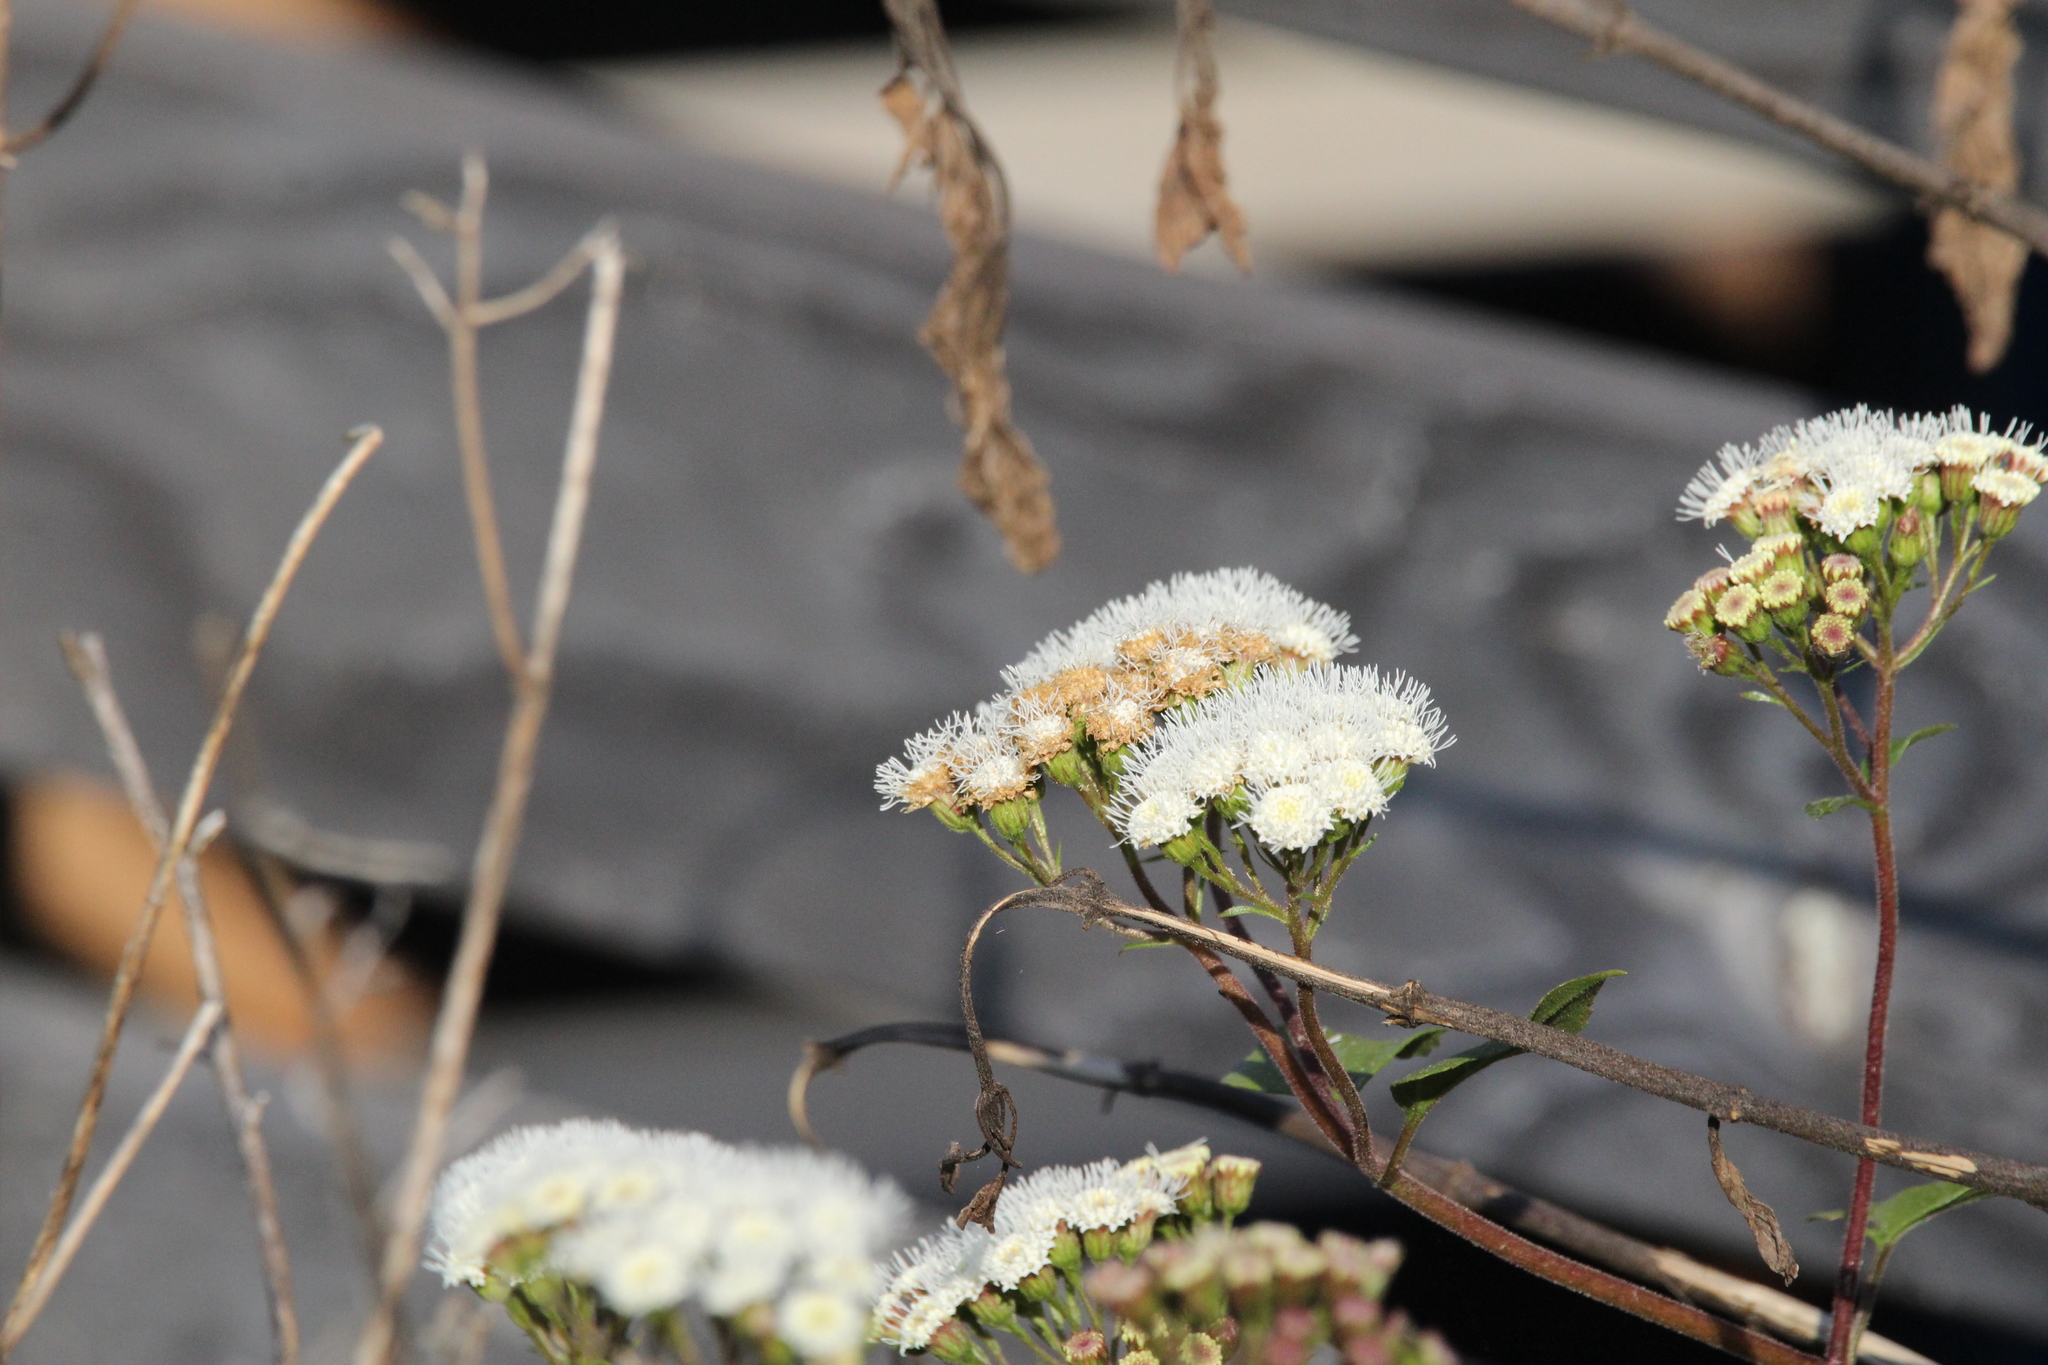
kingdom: Plantae
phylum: Tracheophyta
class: Magnoliopsida
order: Asterales
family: Asteraceae
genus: Ageratina
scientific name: Ageratina adenophora
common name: Sticky snakeroot
